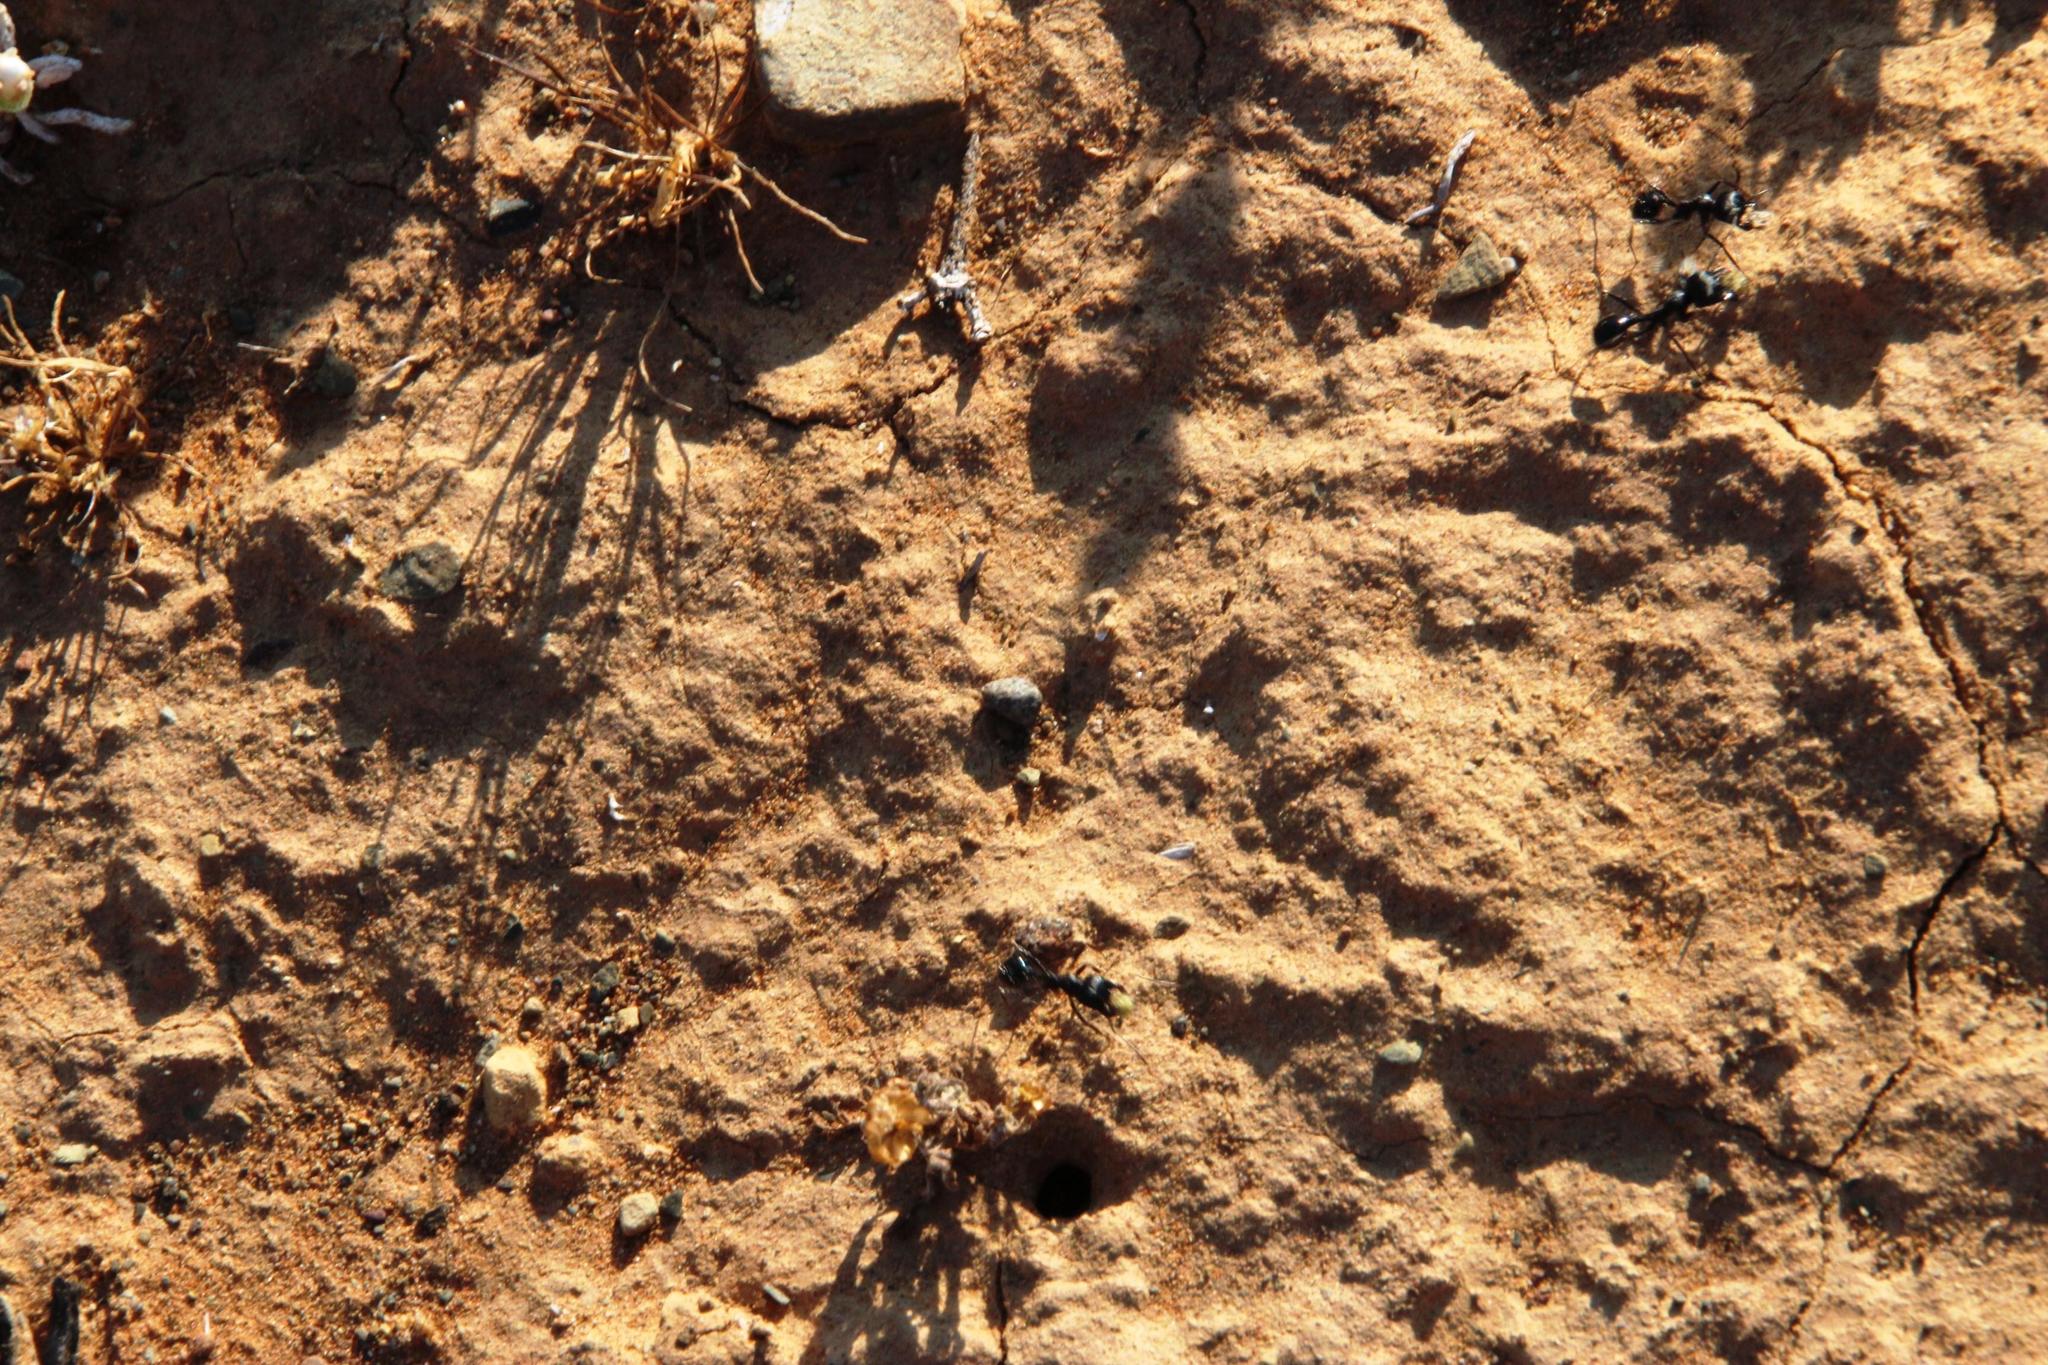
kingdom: Animalia
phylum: Arthropoda
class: Insecta
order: Hymenoptera
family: Formicidae
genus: Messor
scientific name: Messor capensis
